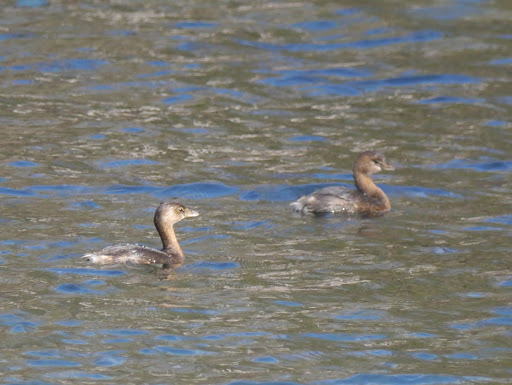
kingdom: Animalia
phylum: Chordata
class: Aves
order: Podicipediformes
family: Podicipedidae
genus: Podilymbus
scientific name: Podilymbus podiceps
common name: Pied-billed grebe
